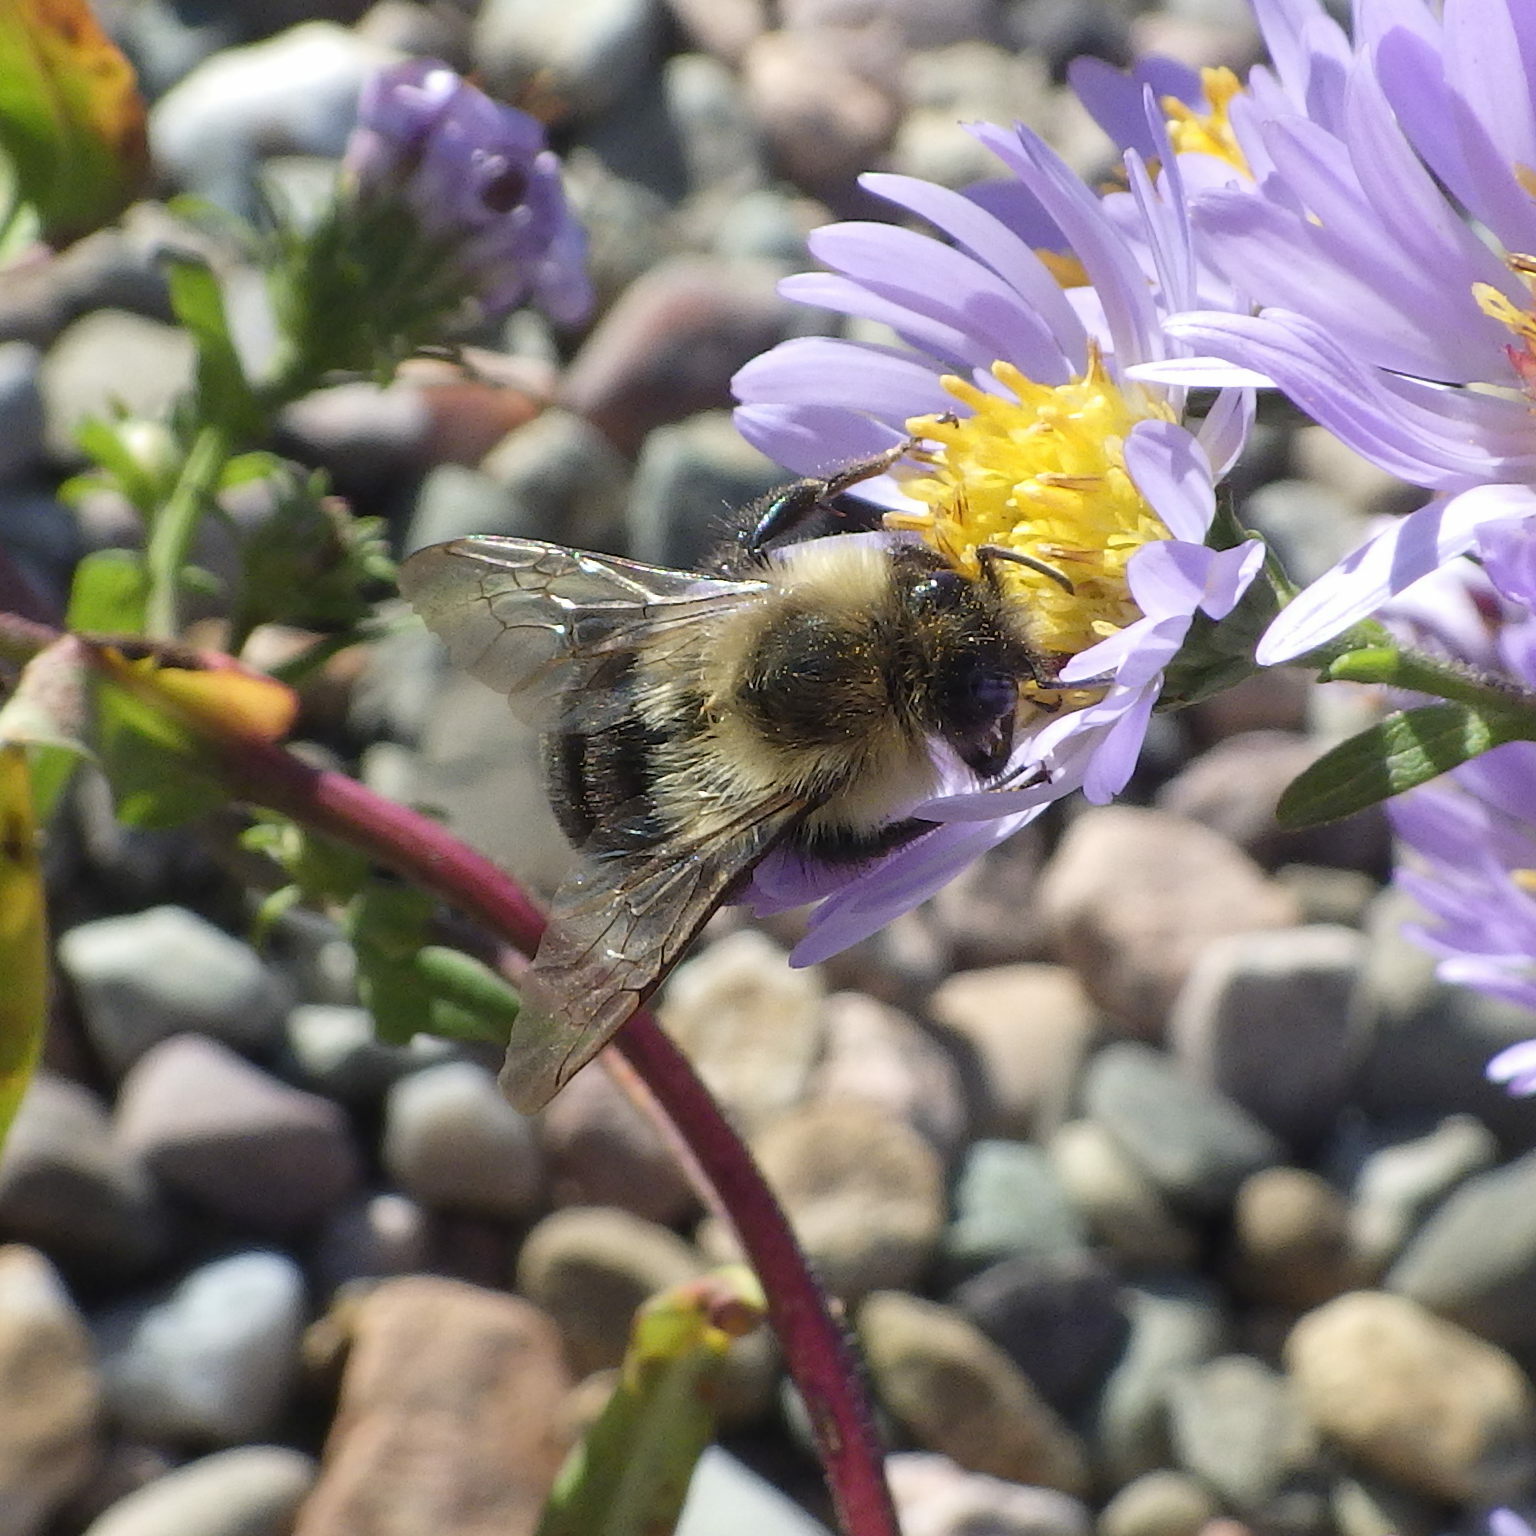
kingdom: Animalia
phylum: Arthropoda
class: Insecta
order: Hymenoptera
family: Apidae
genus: Bombus
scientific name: Bombus impatiens
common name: Common eastern bumble bee
